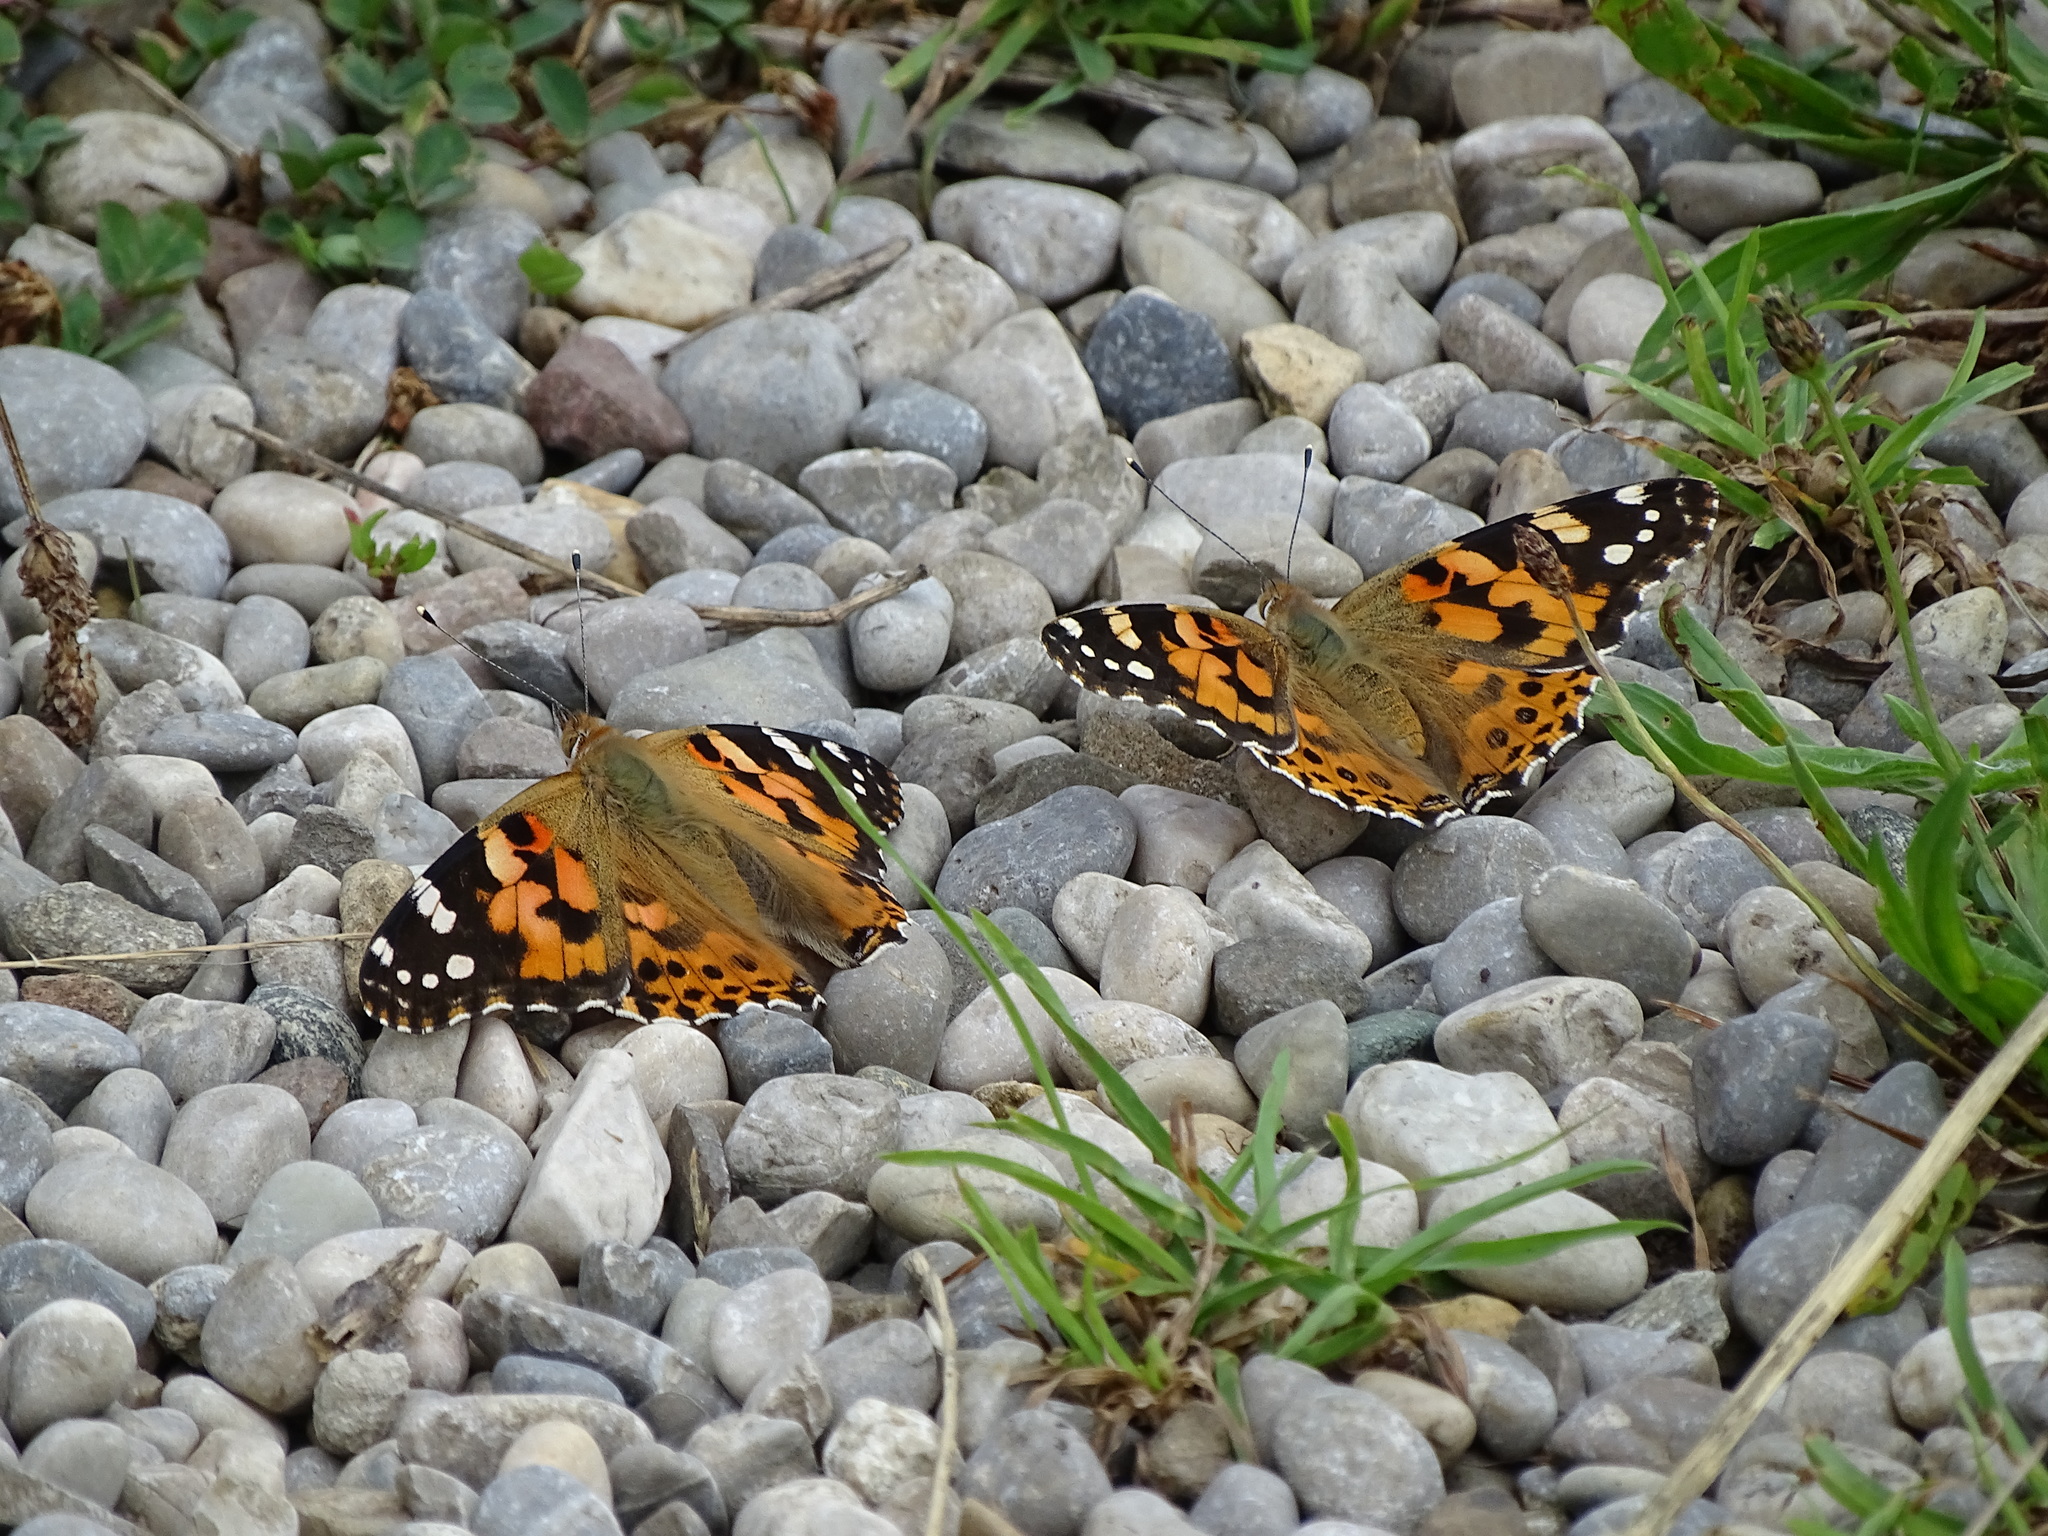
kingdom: Animalia
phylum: Arthropoda
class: Insecta
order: Lepidoptera
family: Nymphalidae
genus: Vanessa
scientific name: Vanessa cardui
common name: Painted lady
